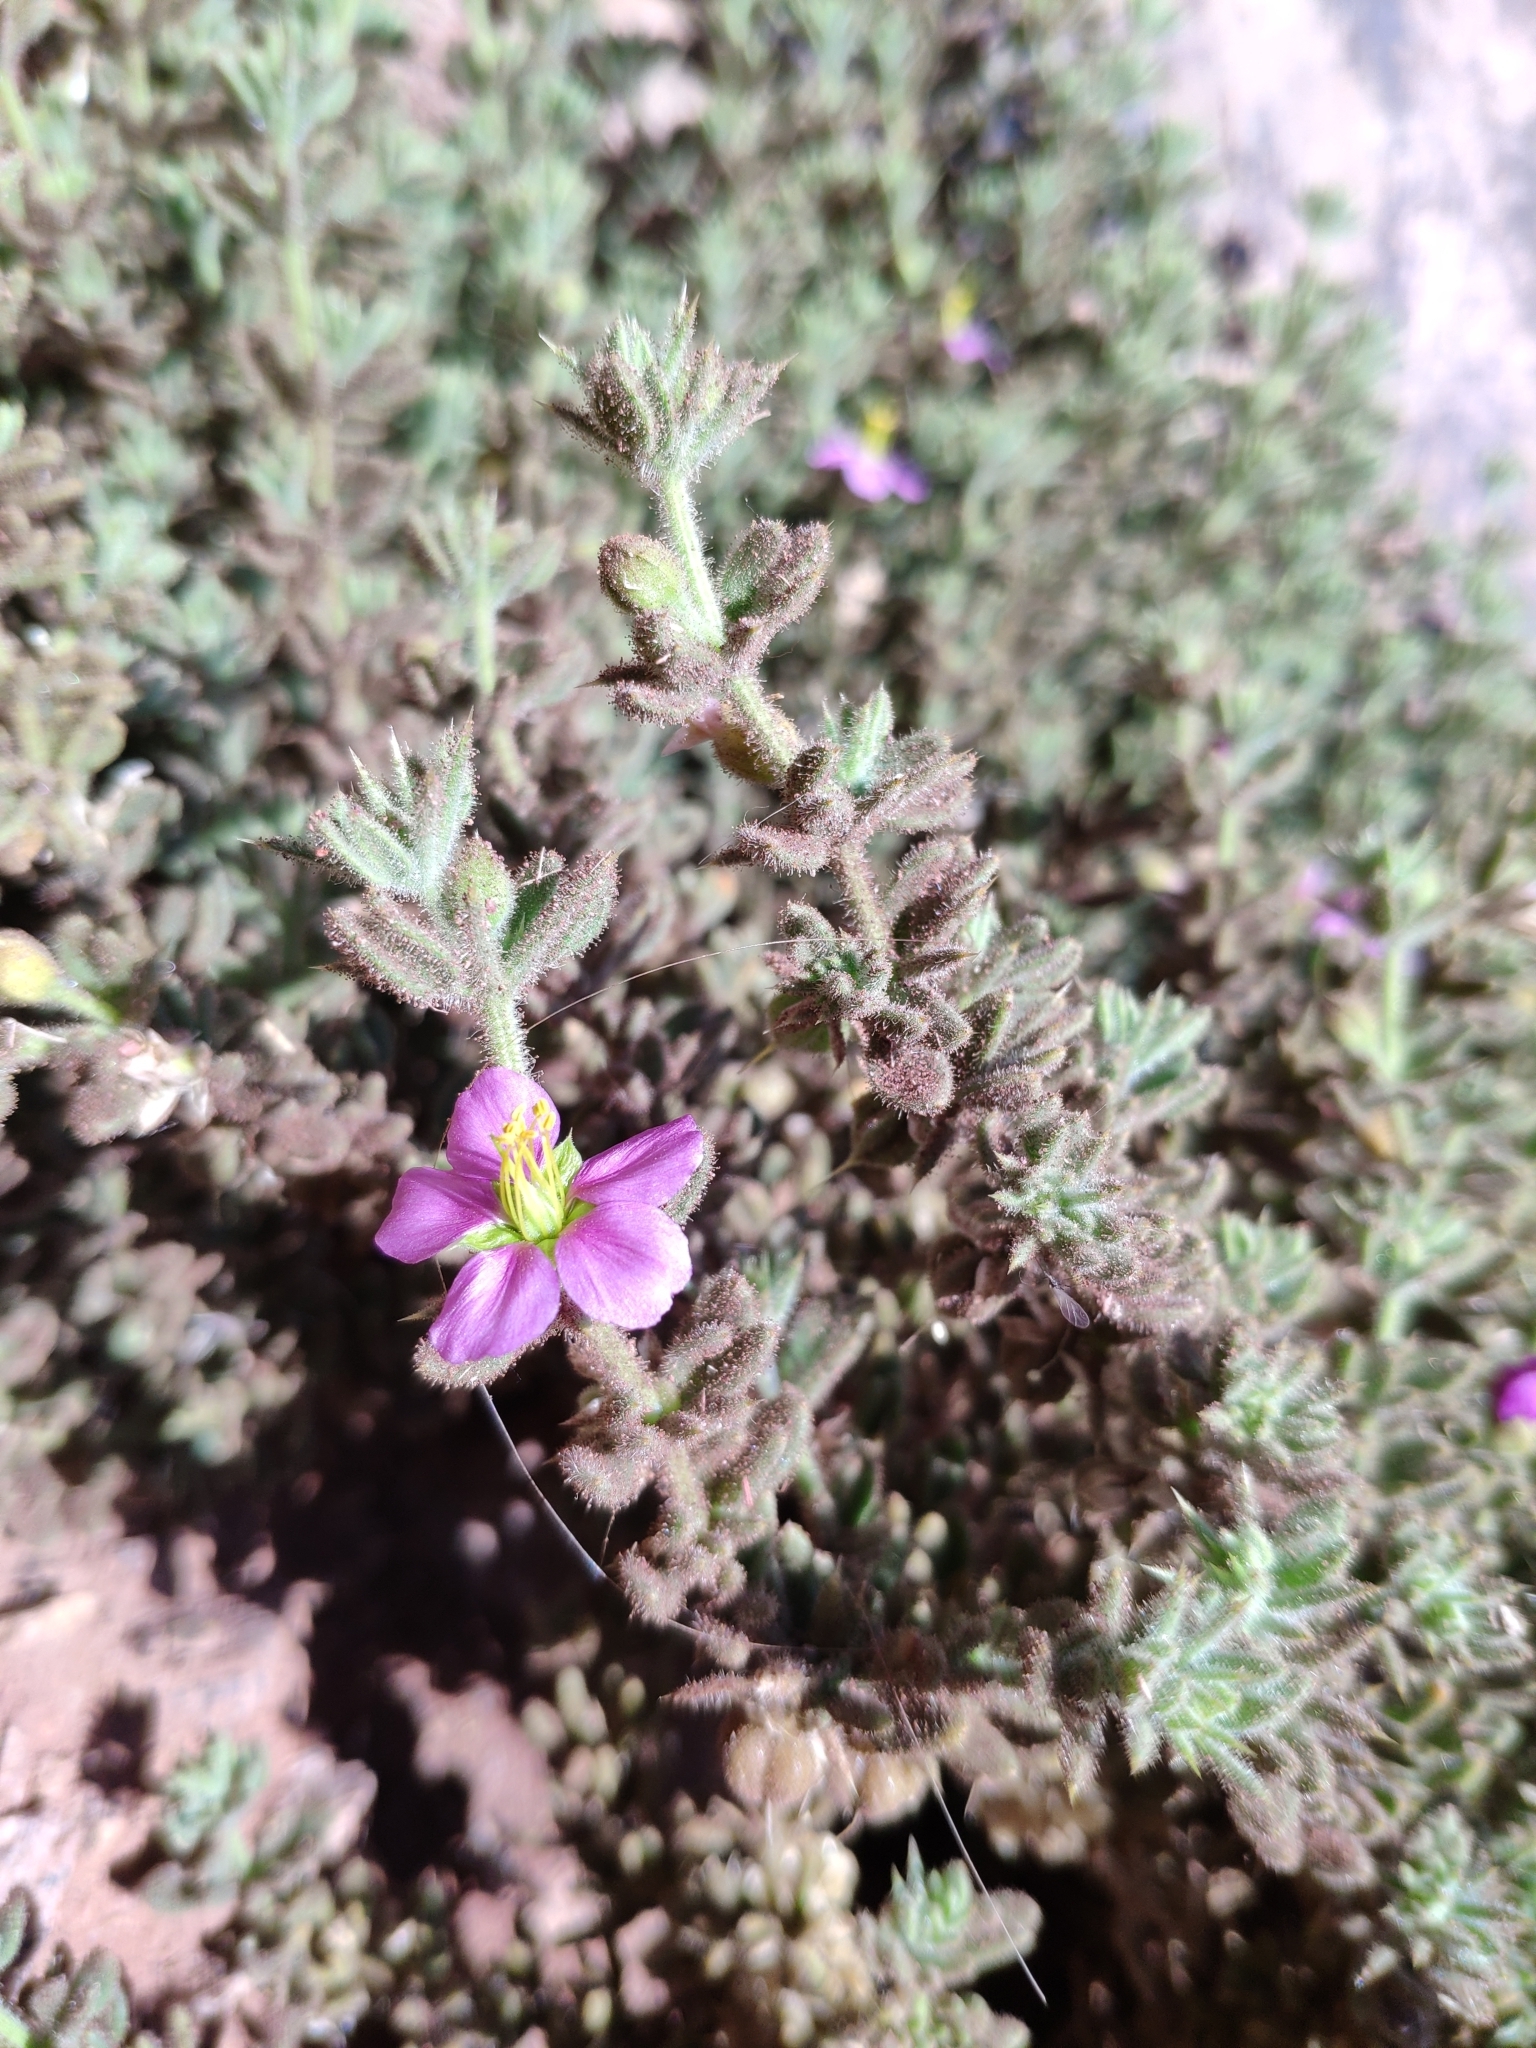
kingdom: Plantae
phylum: Tracheophyta
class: Magnoliopsida
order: Zygophyllales
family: Zygophyllaceae
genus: Fagonia
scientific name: Fagonia mollis
